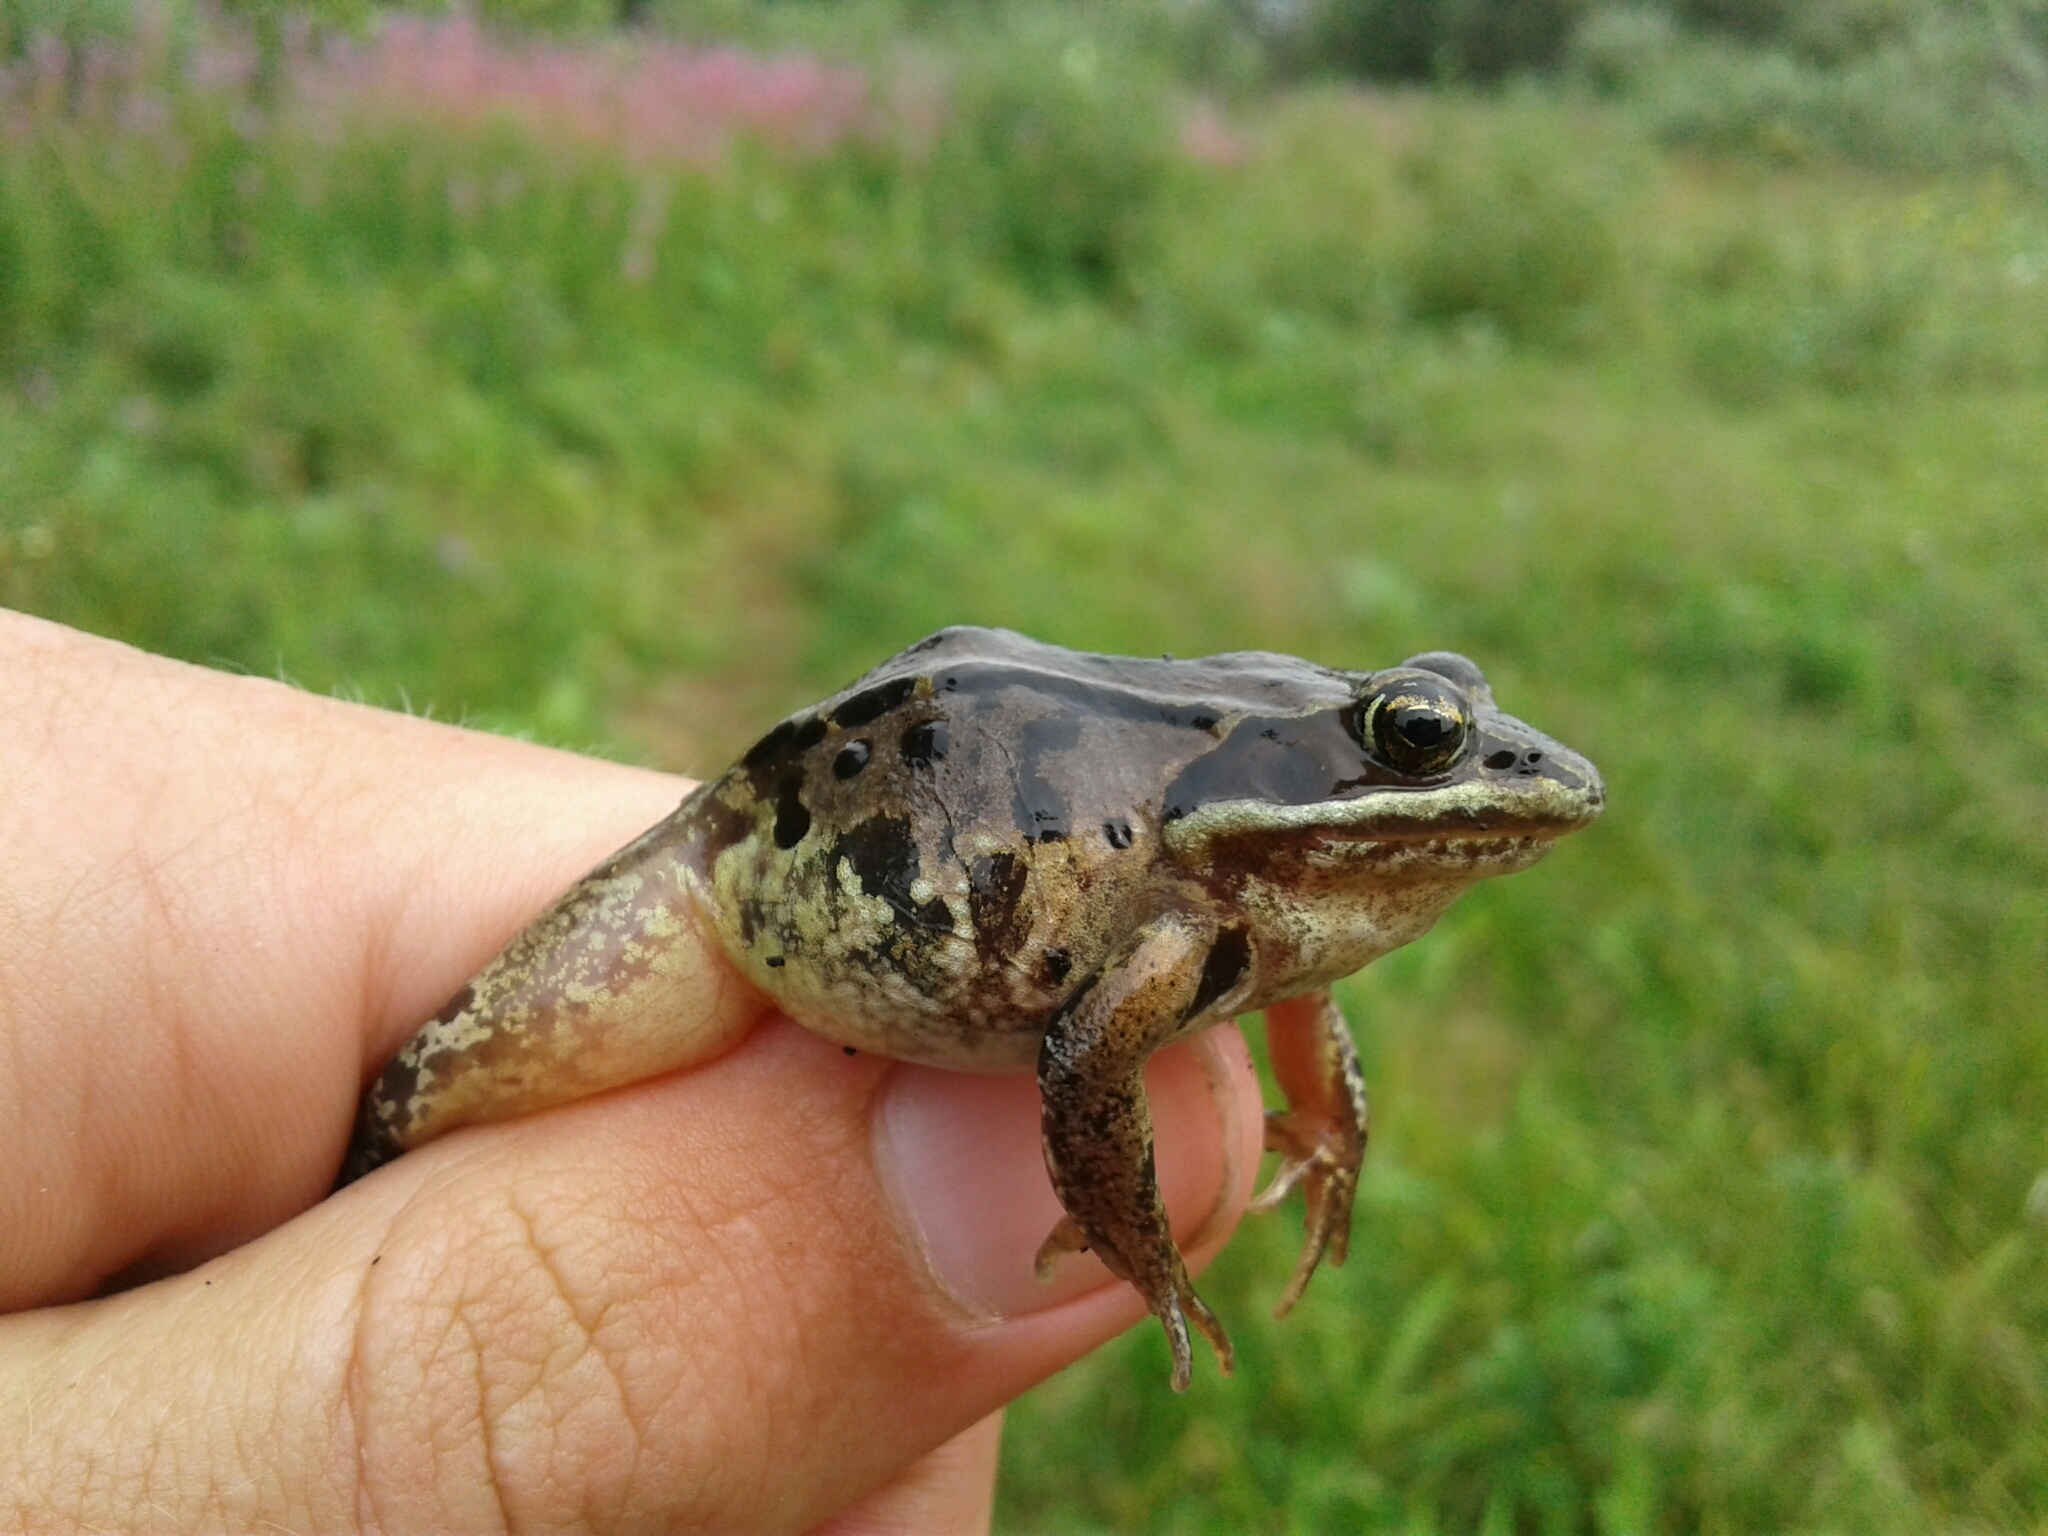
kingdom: Animalia
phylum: Chordata
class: Amphibia
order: Anura
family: Ranidae
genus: Lithobates
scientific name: Lithobates sylvaticus
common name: Wood frog
